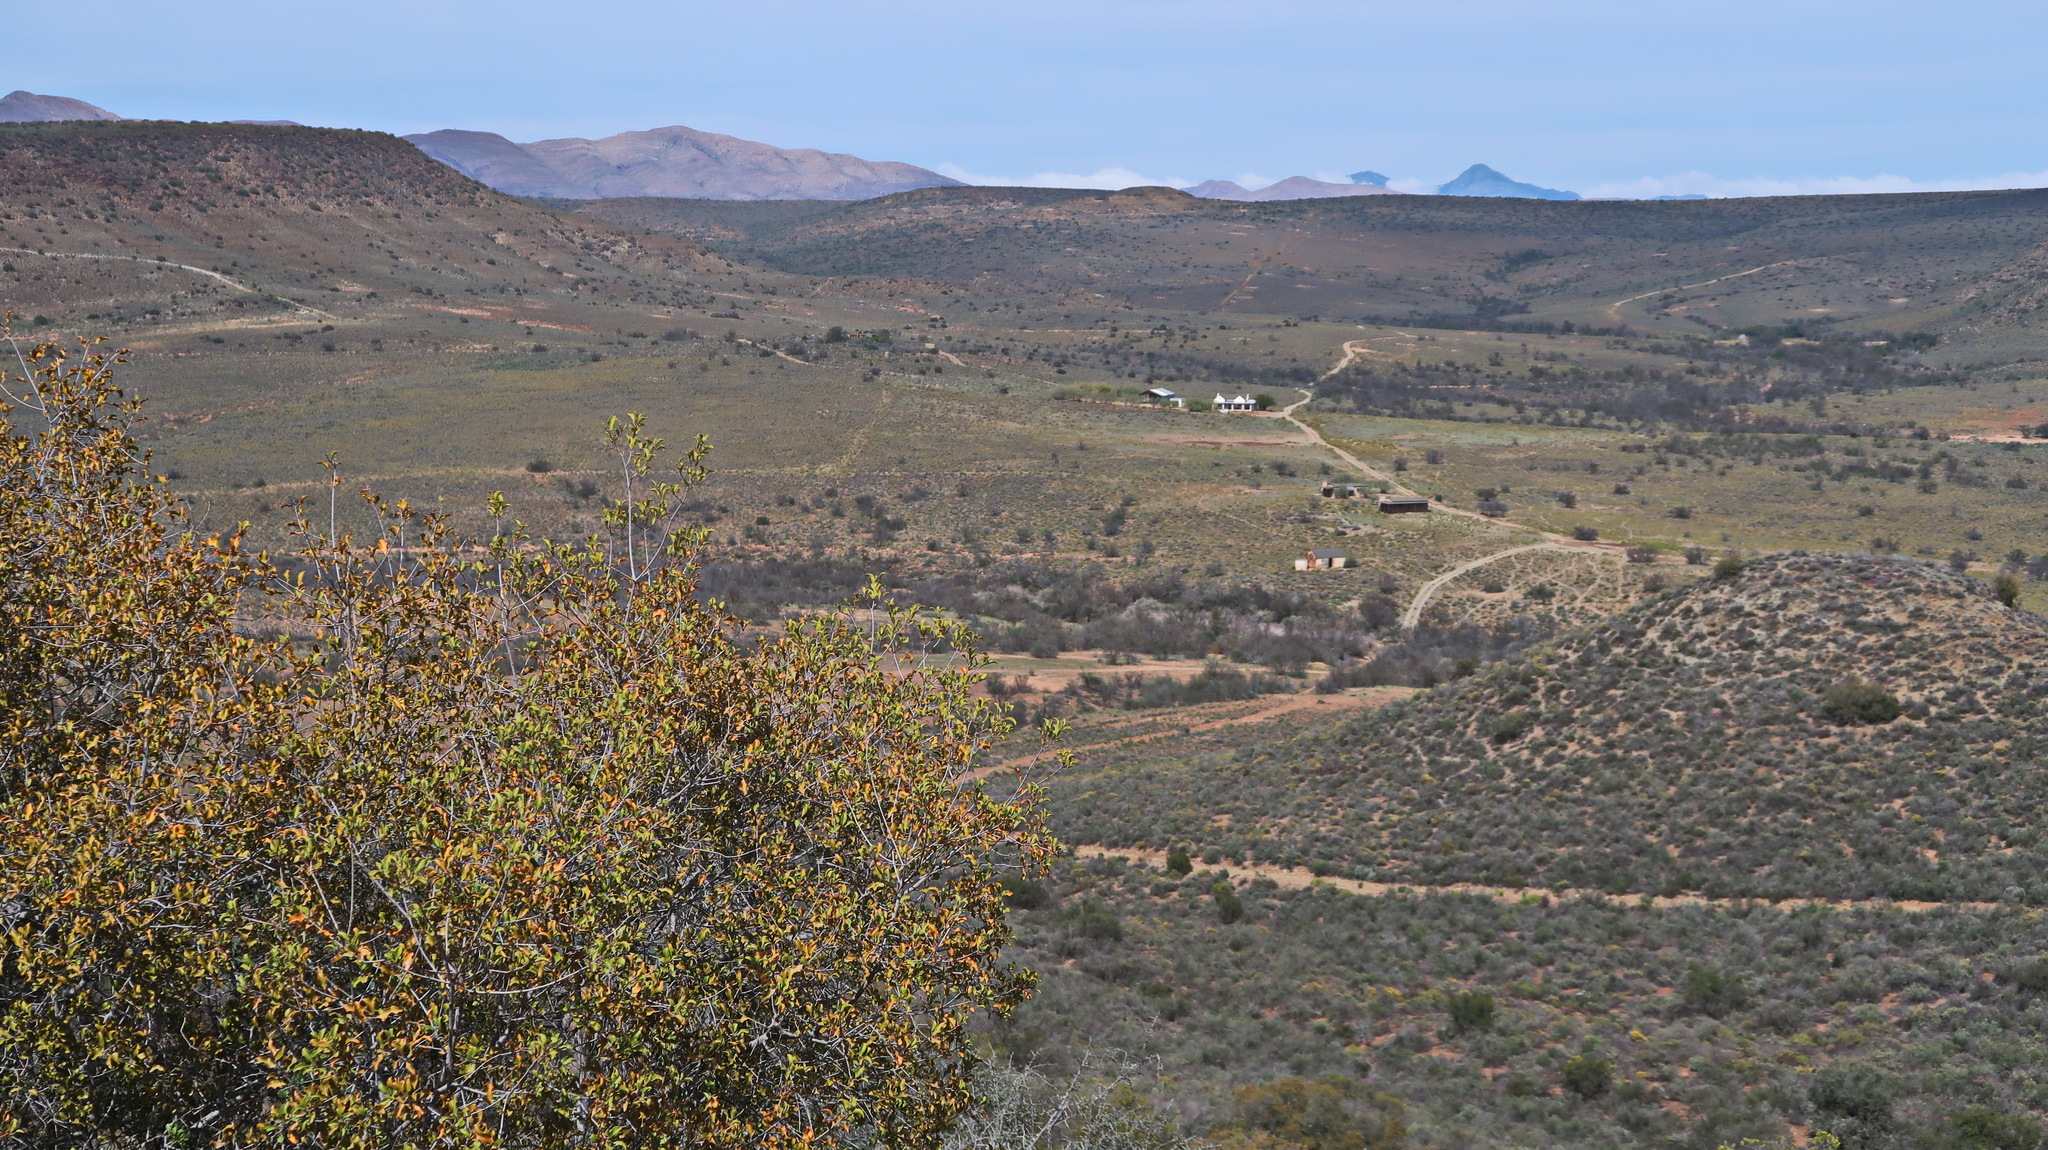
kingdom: Plantae
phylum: Tracheophyta
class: Magnoliopsida
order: Ericales
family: Ebenaceae
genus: Euclea
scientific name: Euclea undulata
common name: Small-leaved guarri
